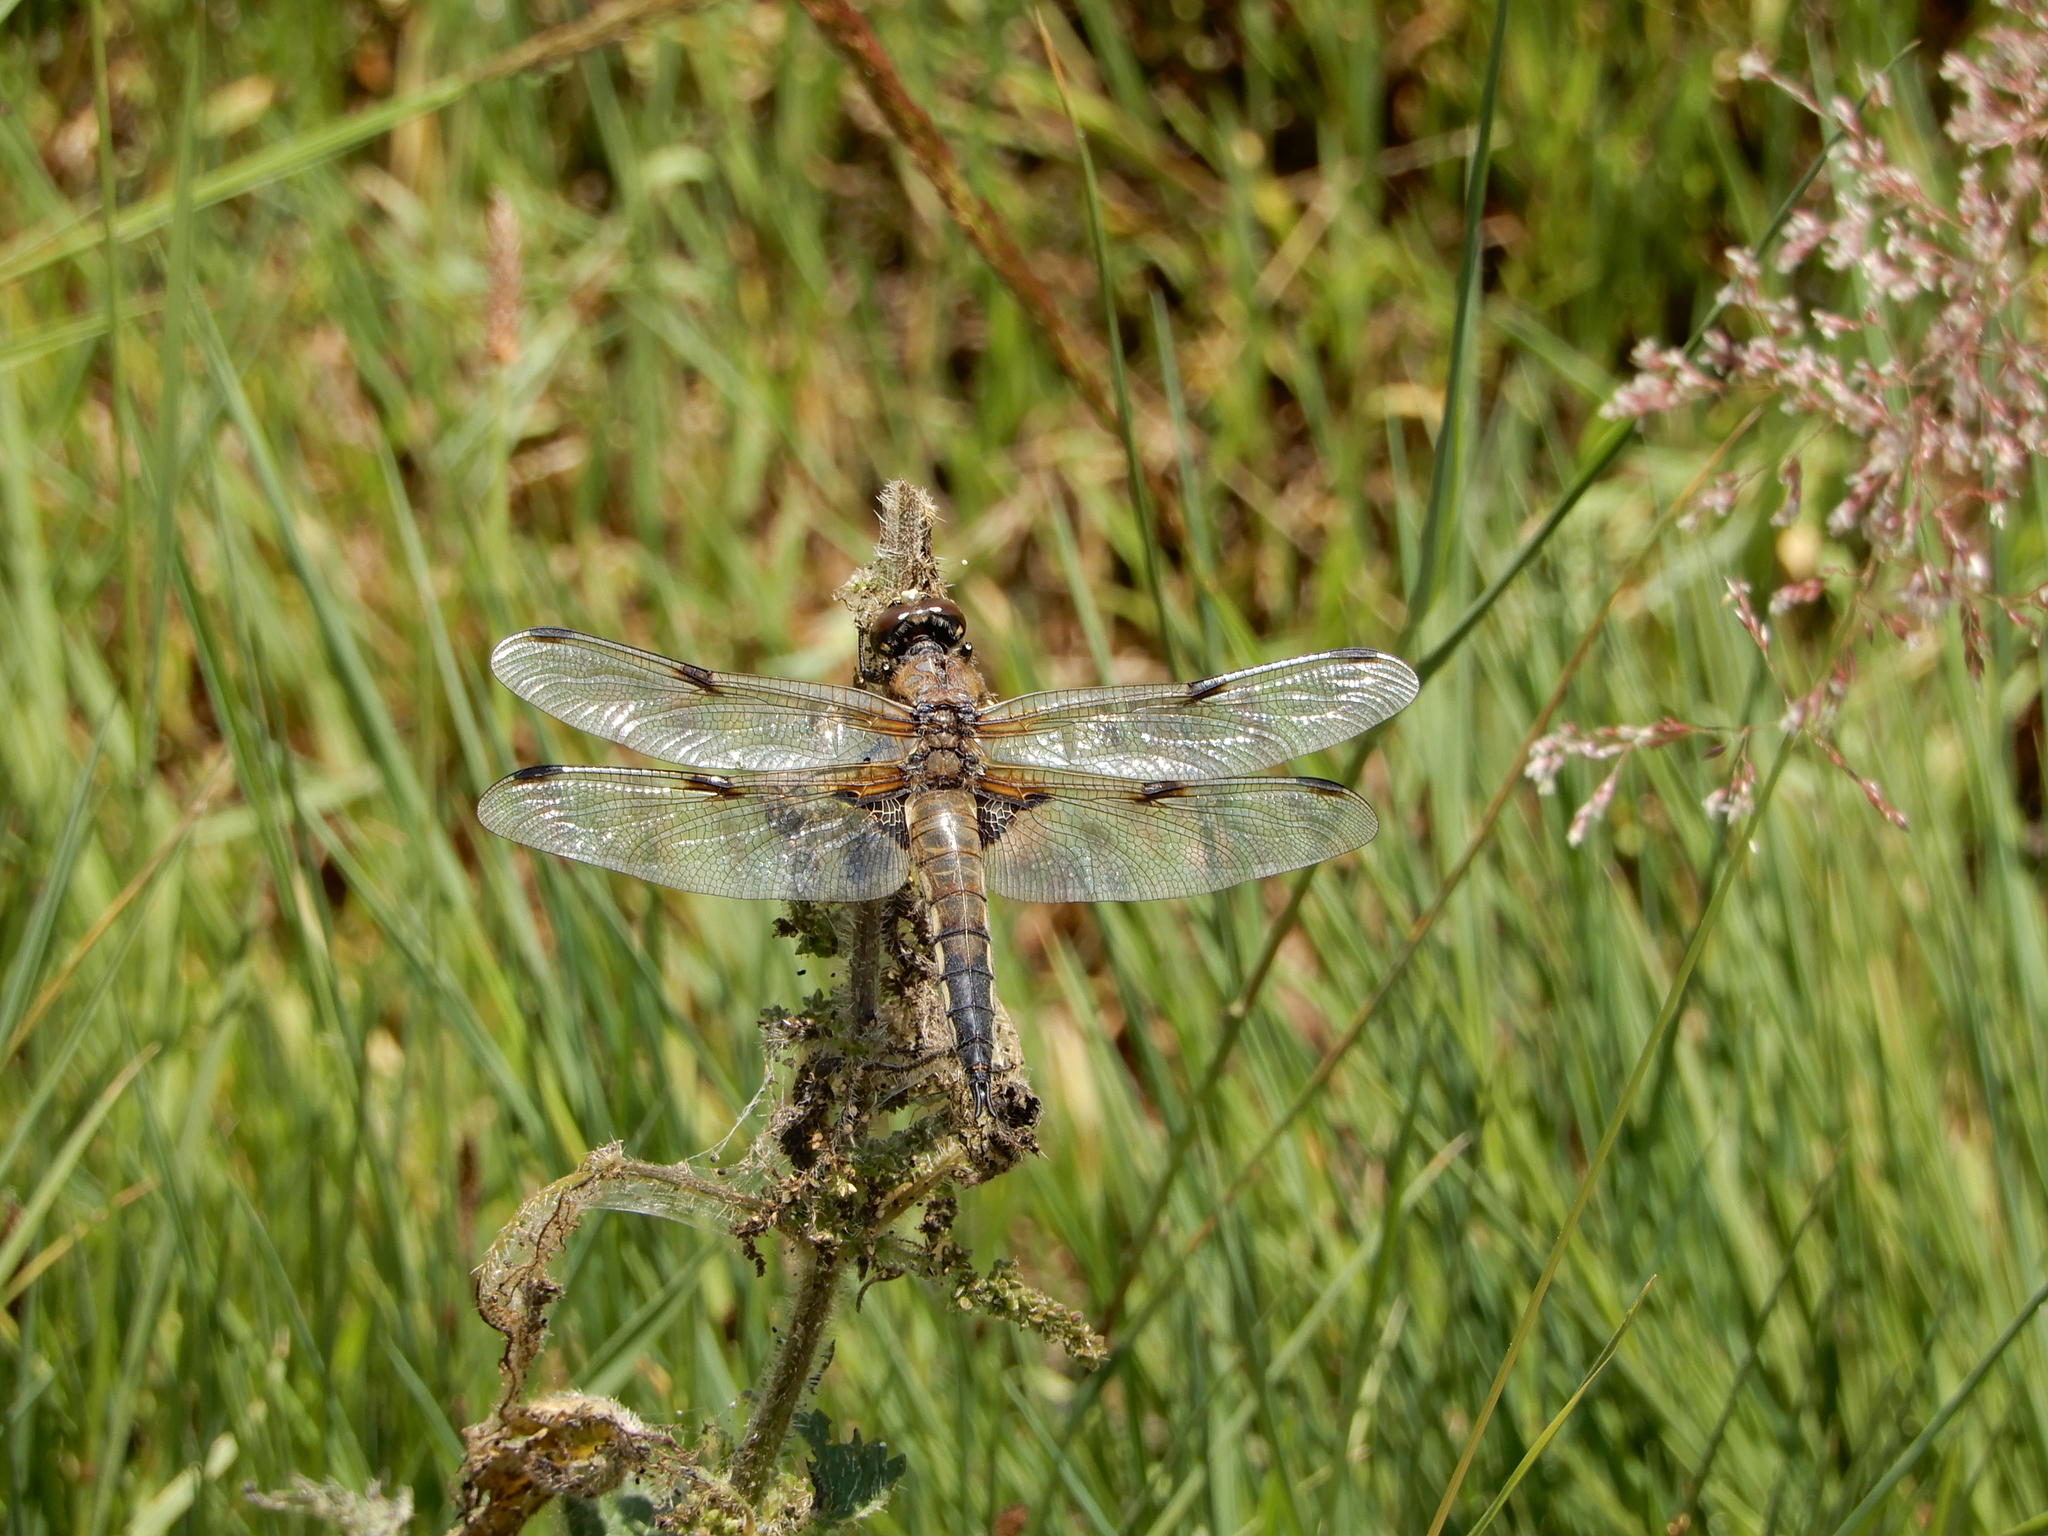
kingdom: Animalia
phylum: Arthropoda
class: Insecta
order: Odonata
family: Libellulidae
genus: Libellula
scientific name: Libellula quadrimaculata
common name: Four-spotted chaser
